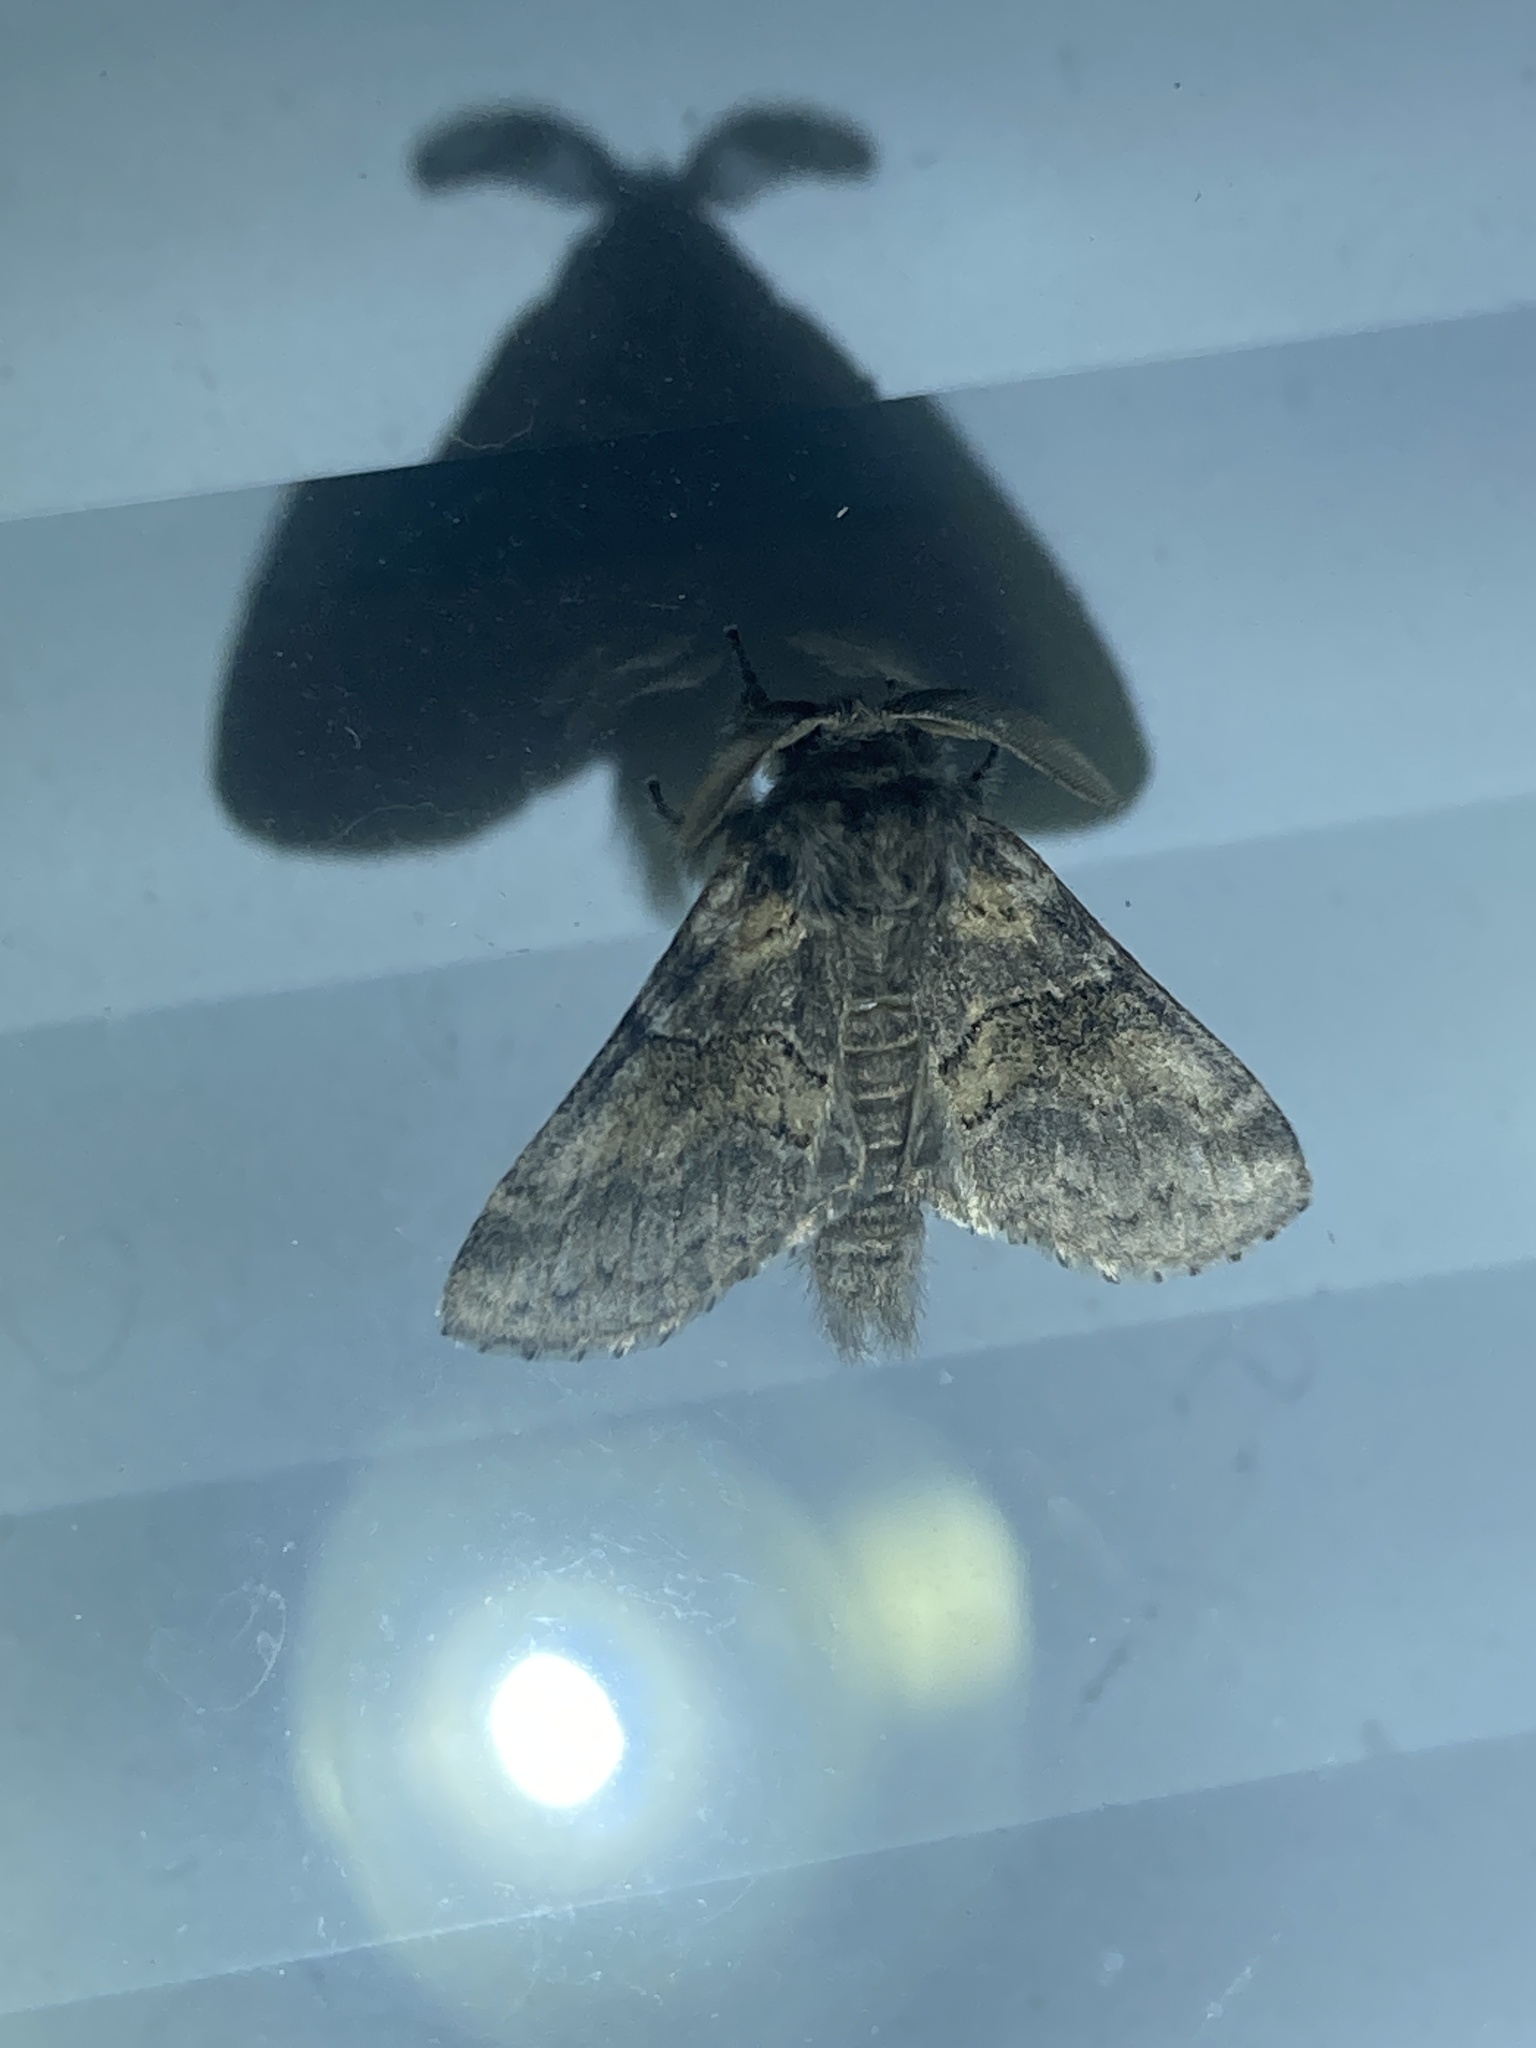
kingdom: Animalia
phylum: Arthropoda
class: Insecta
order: Lepidoptera
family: Notodontidae
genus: Gluphisia
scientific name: Gluphisia septentrionis
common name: Common gluphisia
